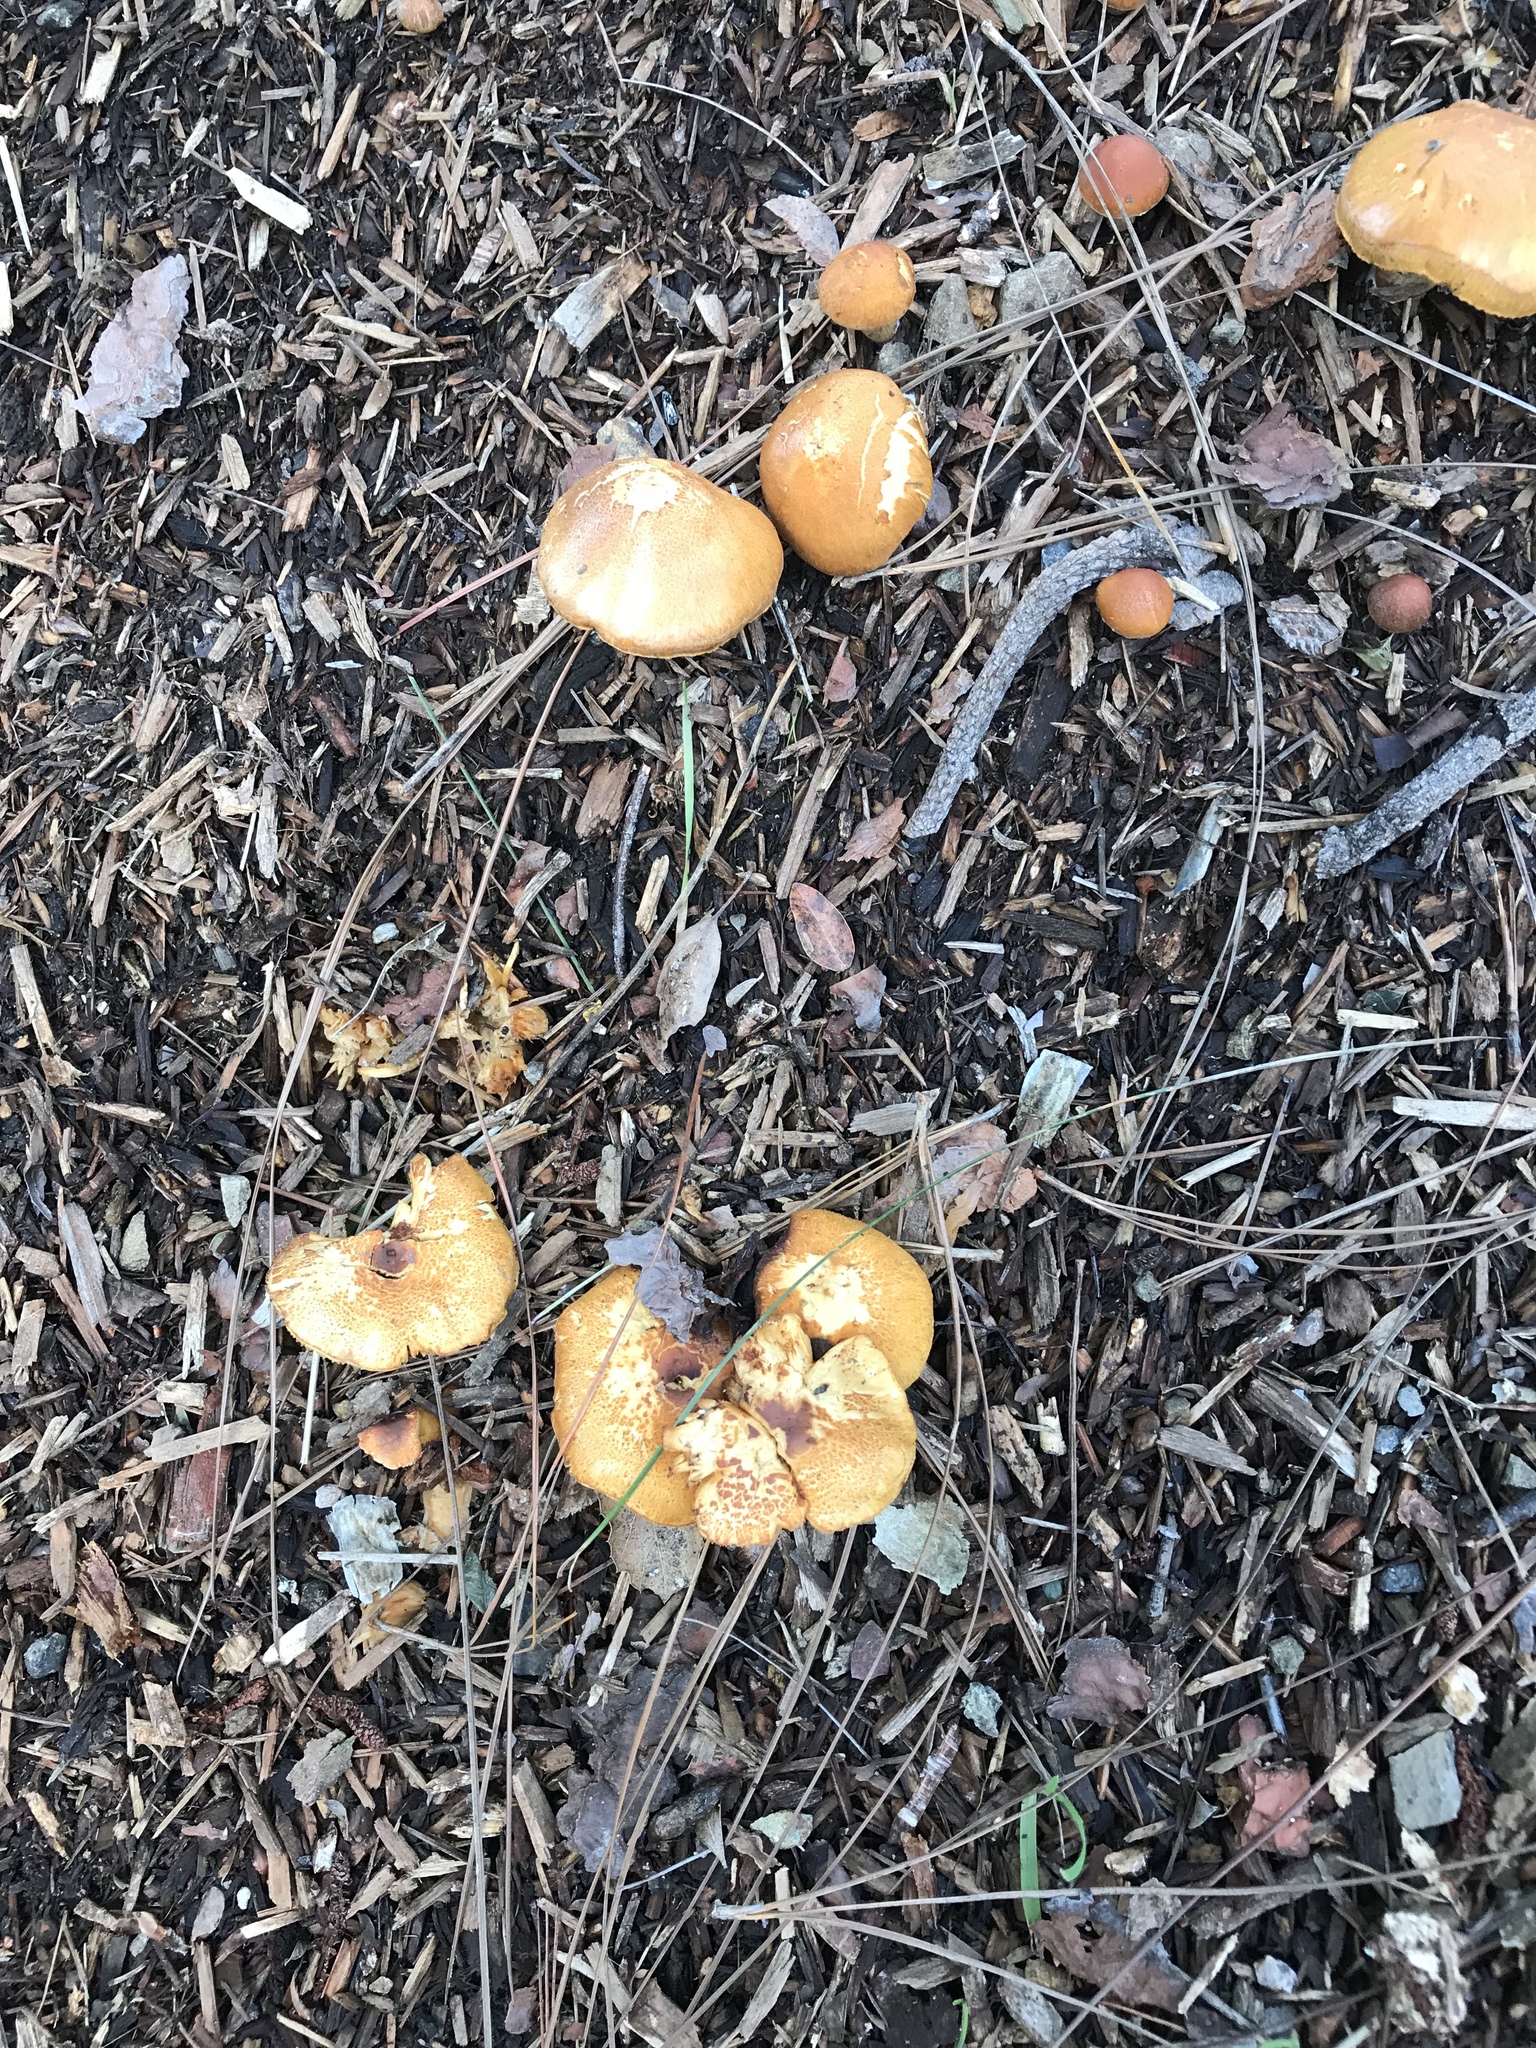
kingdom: Fungi
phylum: Basidiomycota
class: Agaricomycetes
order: Agaricales
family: Hymenogastraceae
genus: Gymnopilus
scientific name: Gymnopilus sapineus
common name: Scaly rustgill
